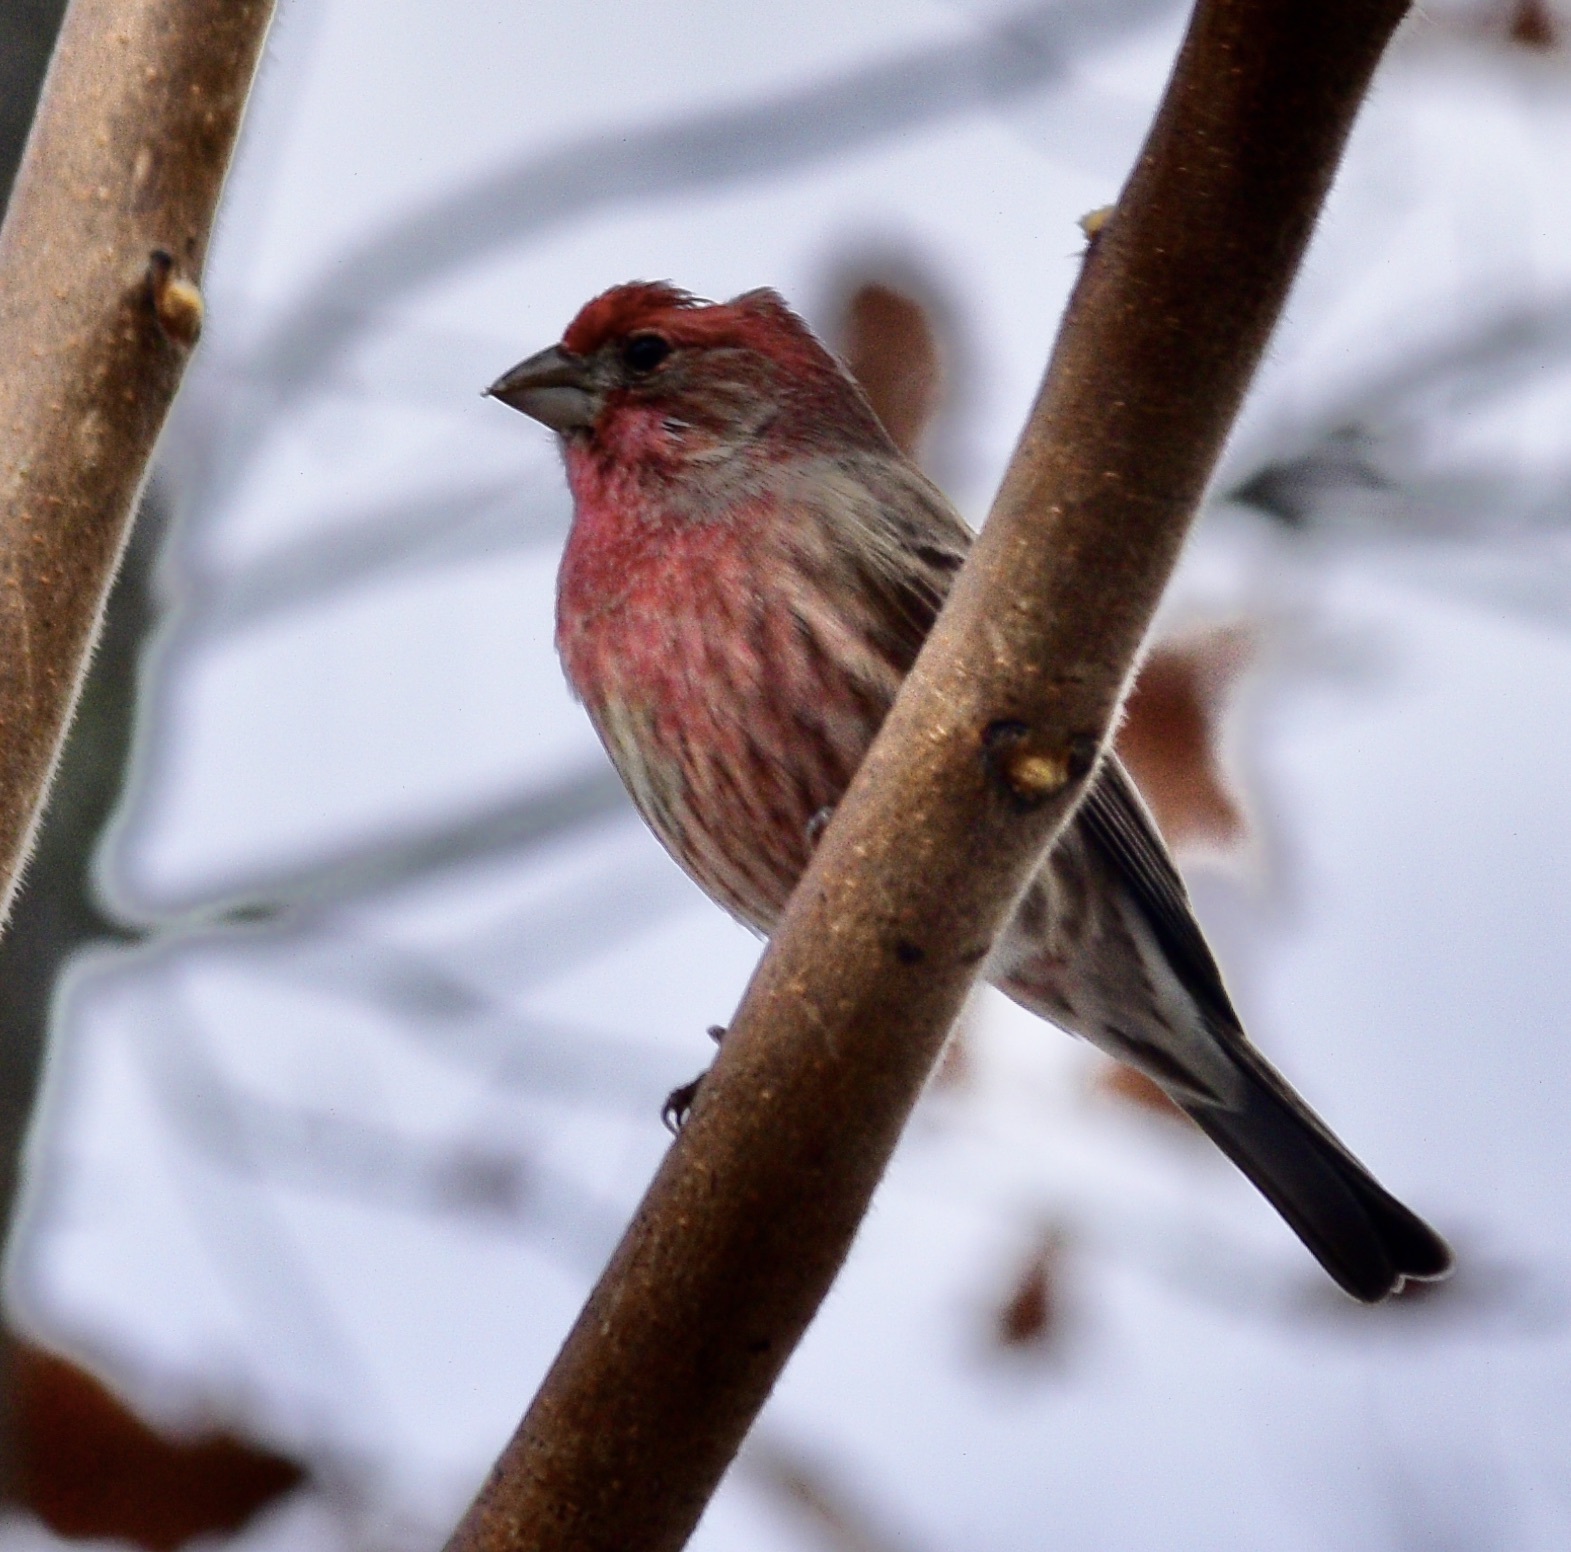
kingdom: Animalia
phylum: Chordata
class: Aves
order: Passeriformes
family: Fringillidae
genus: Haemorhous
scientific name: Haemorhous mexicanus
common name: House finch
